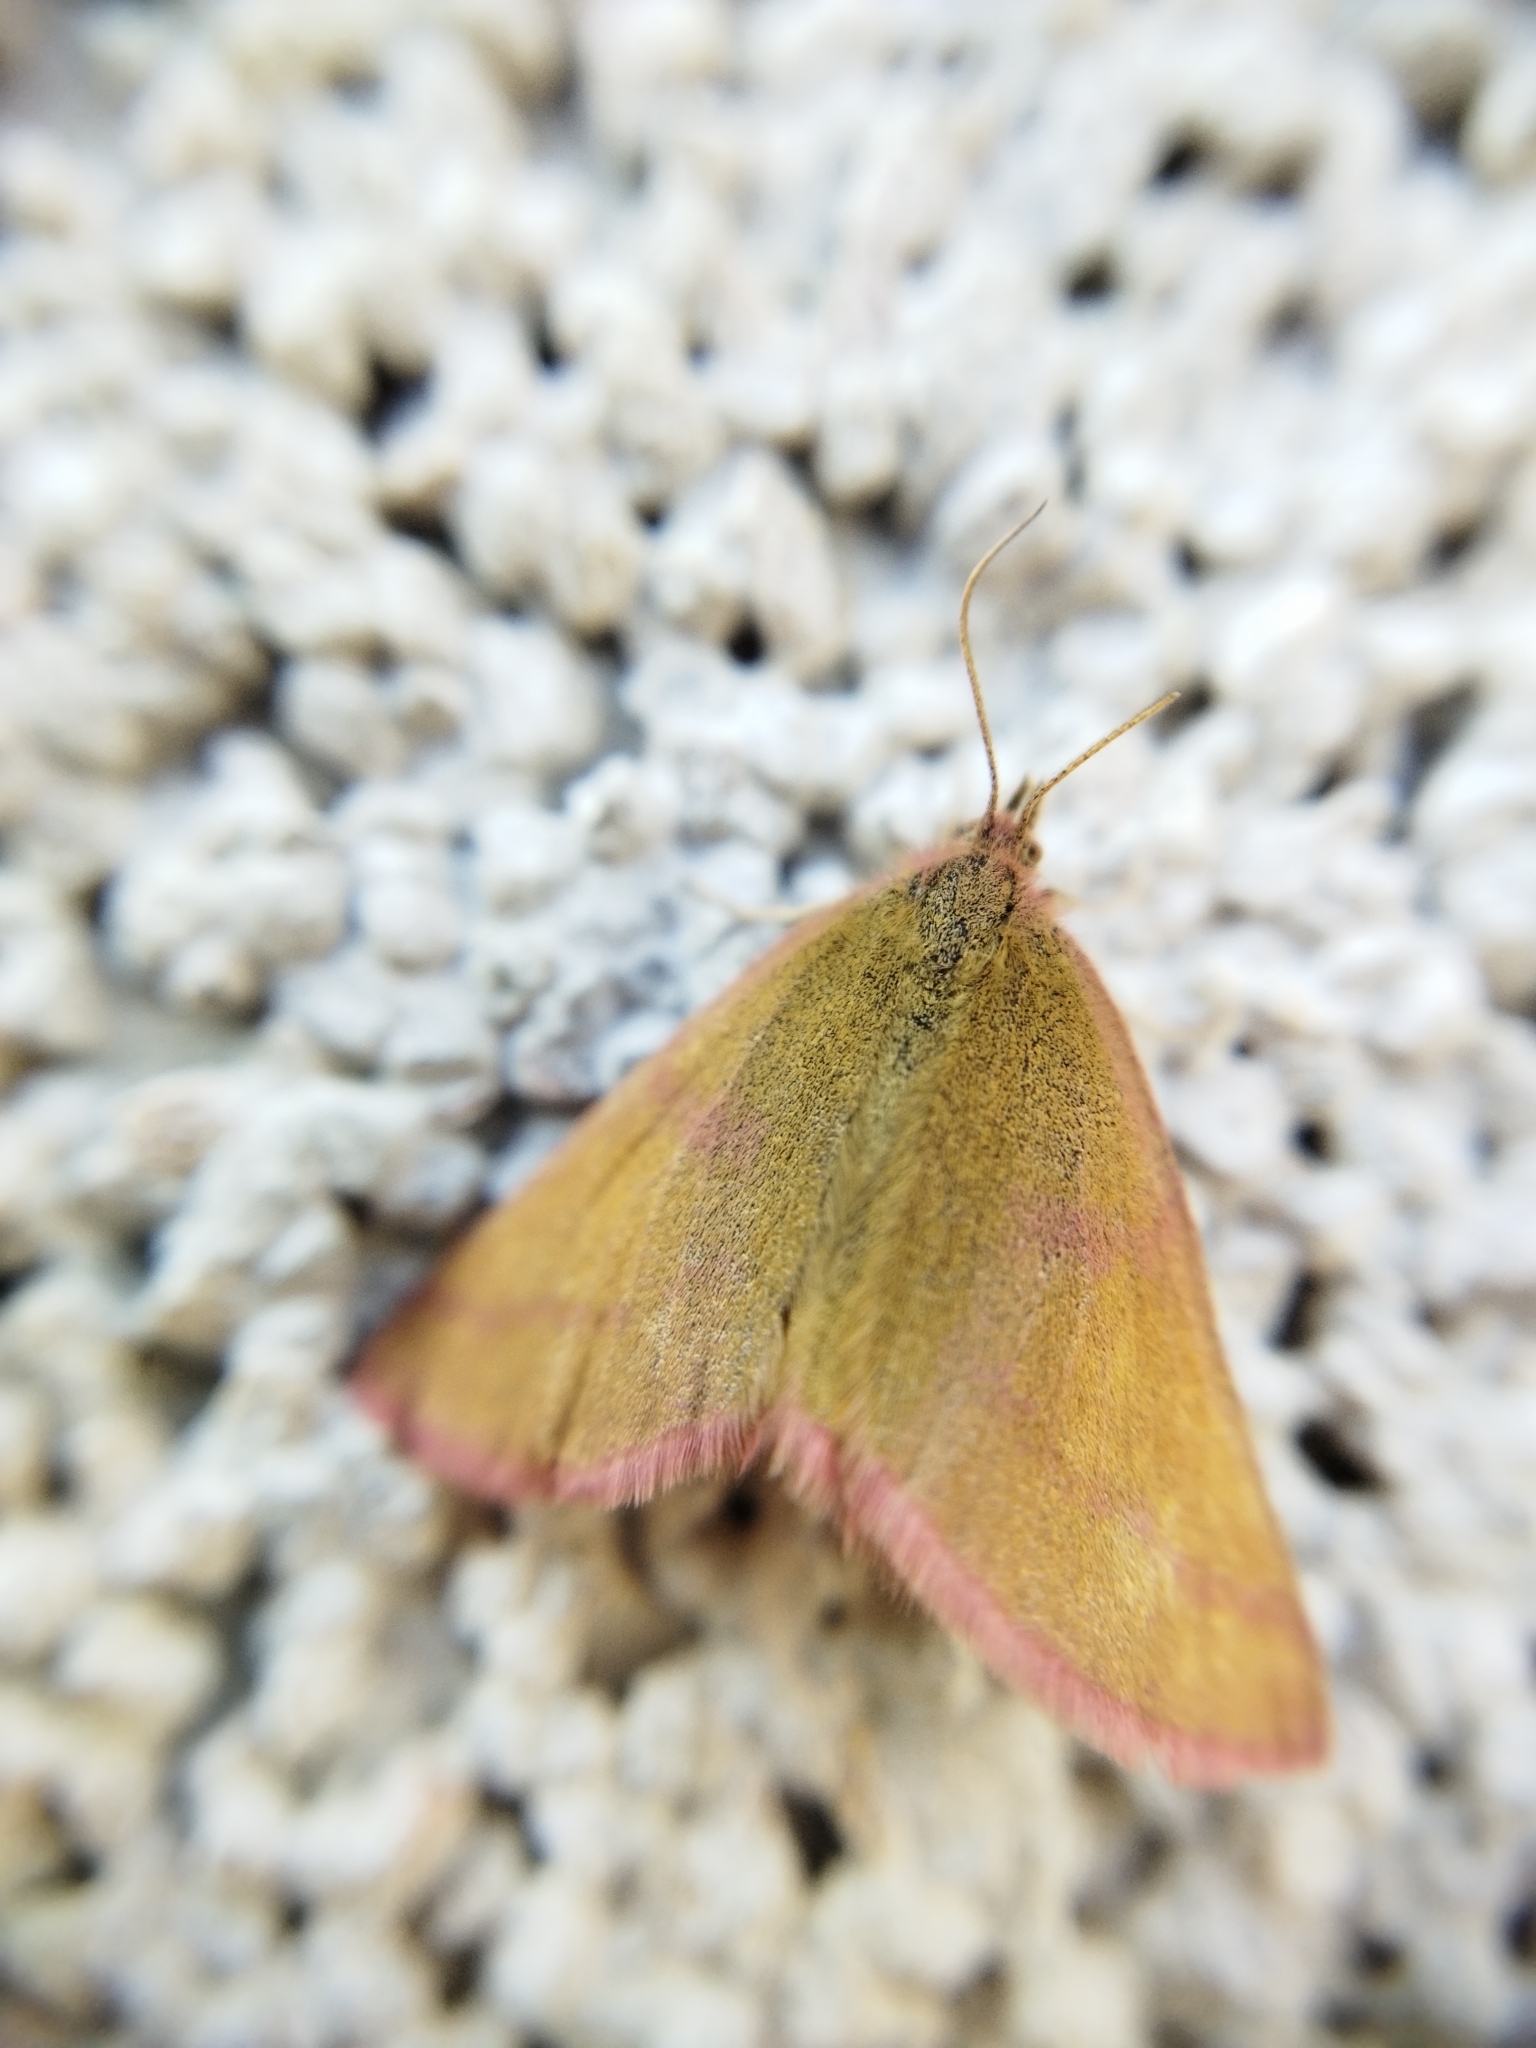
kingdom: Animalia
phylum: Arthropoda
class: Insecta
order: Lepidoptera
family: Geometridae
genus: Lythria
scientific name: Lythria purpuraria
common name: Purple-barred yellow
